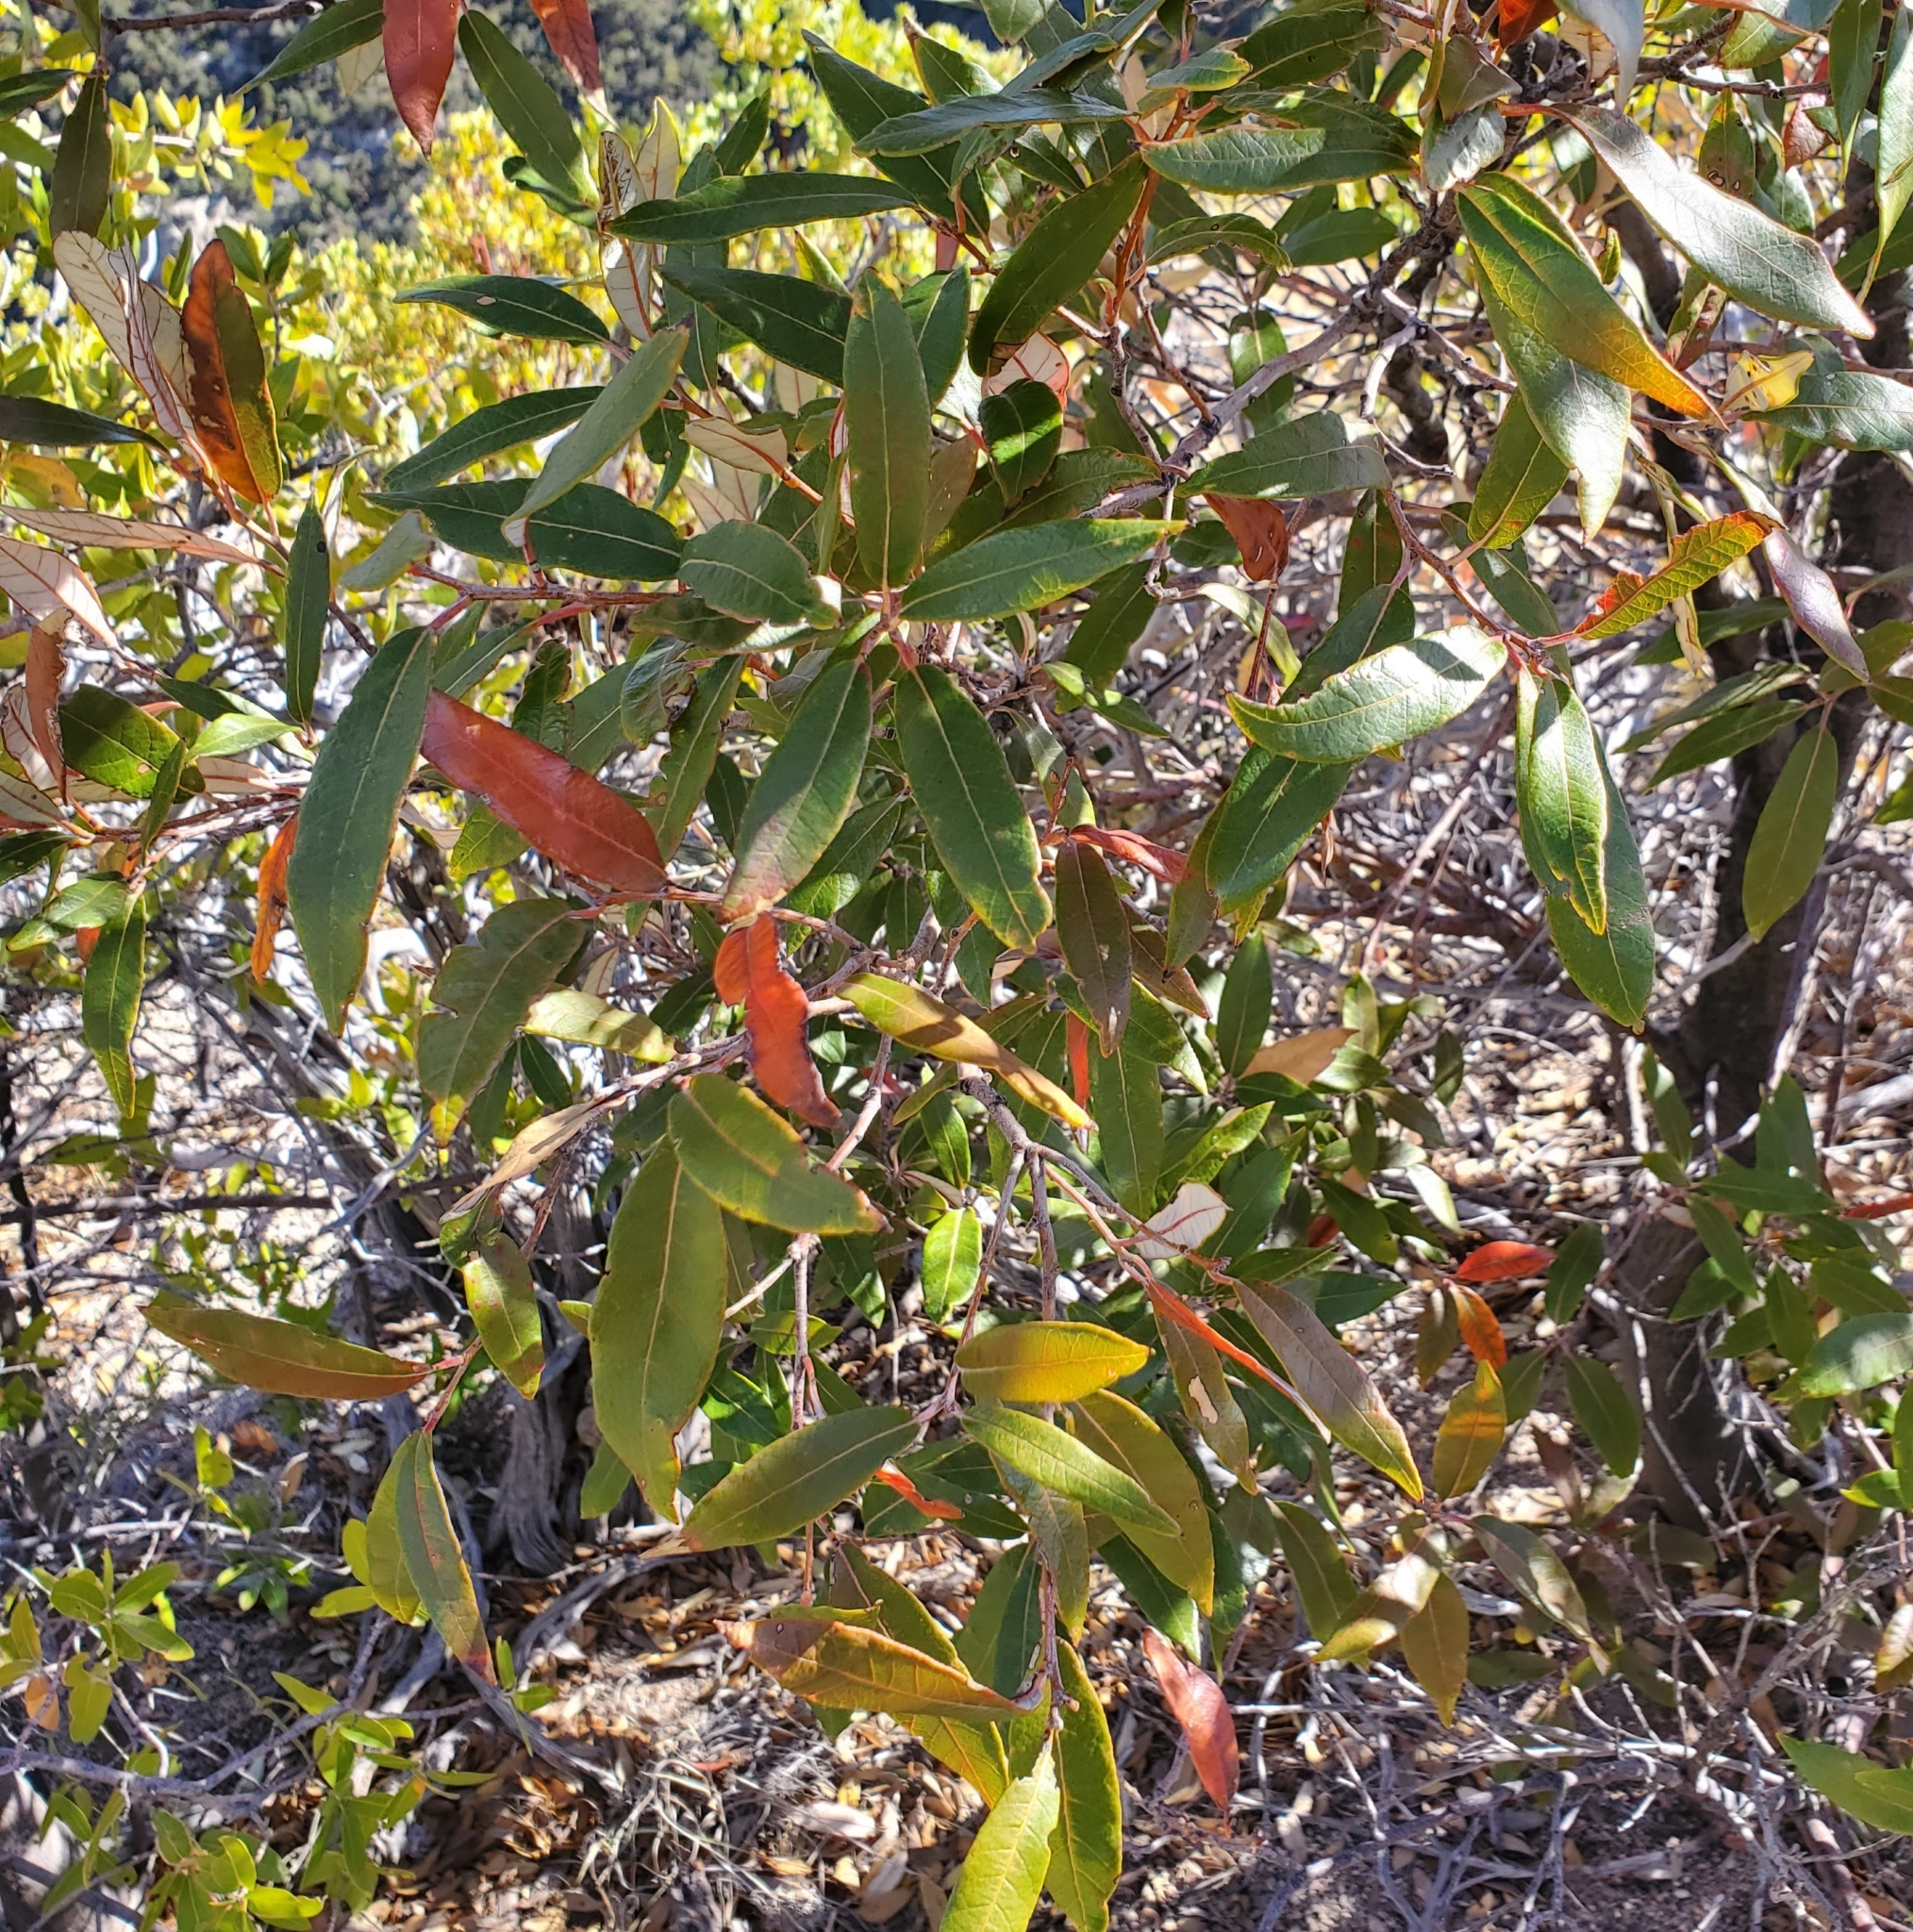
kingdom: Plantae
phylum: Tracheophyta
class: Magnoliopsida
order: Fagales
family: Fagaceae
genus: Quercus
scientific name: Quercus hypoleucoides
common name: Silverleaf oak
